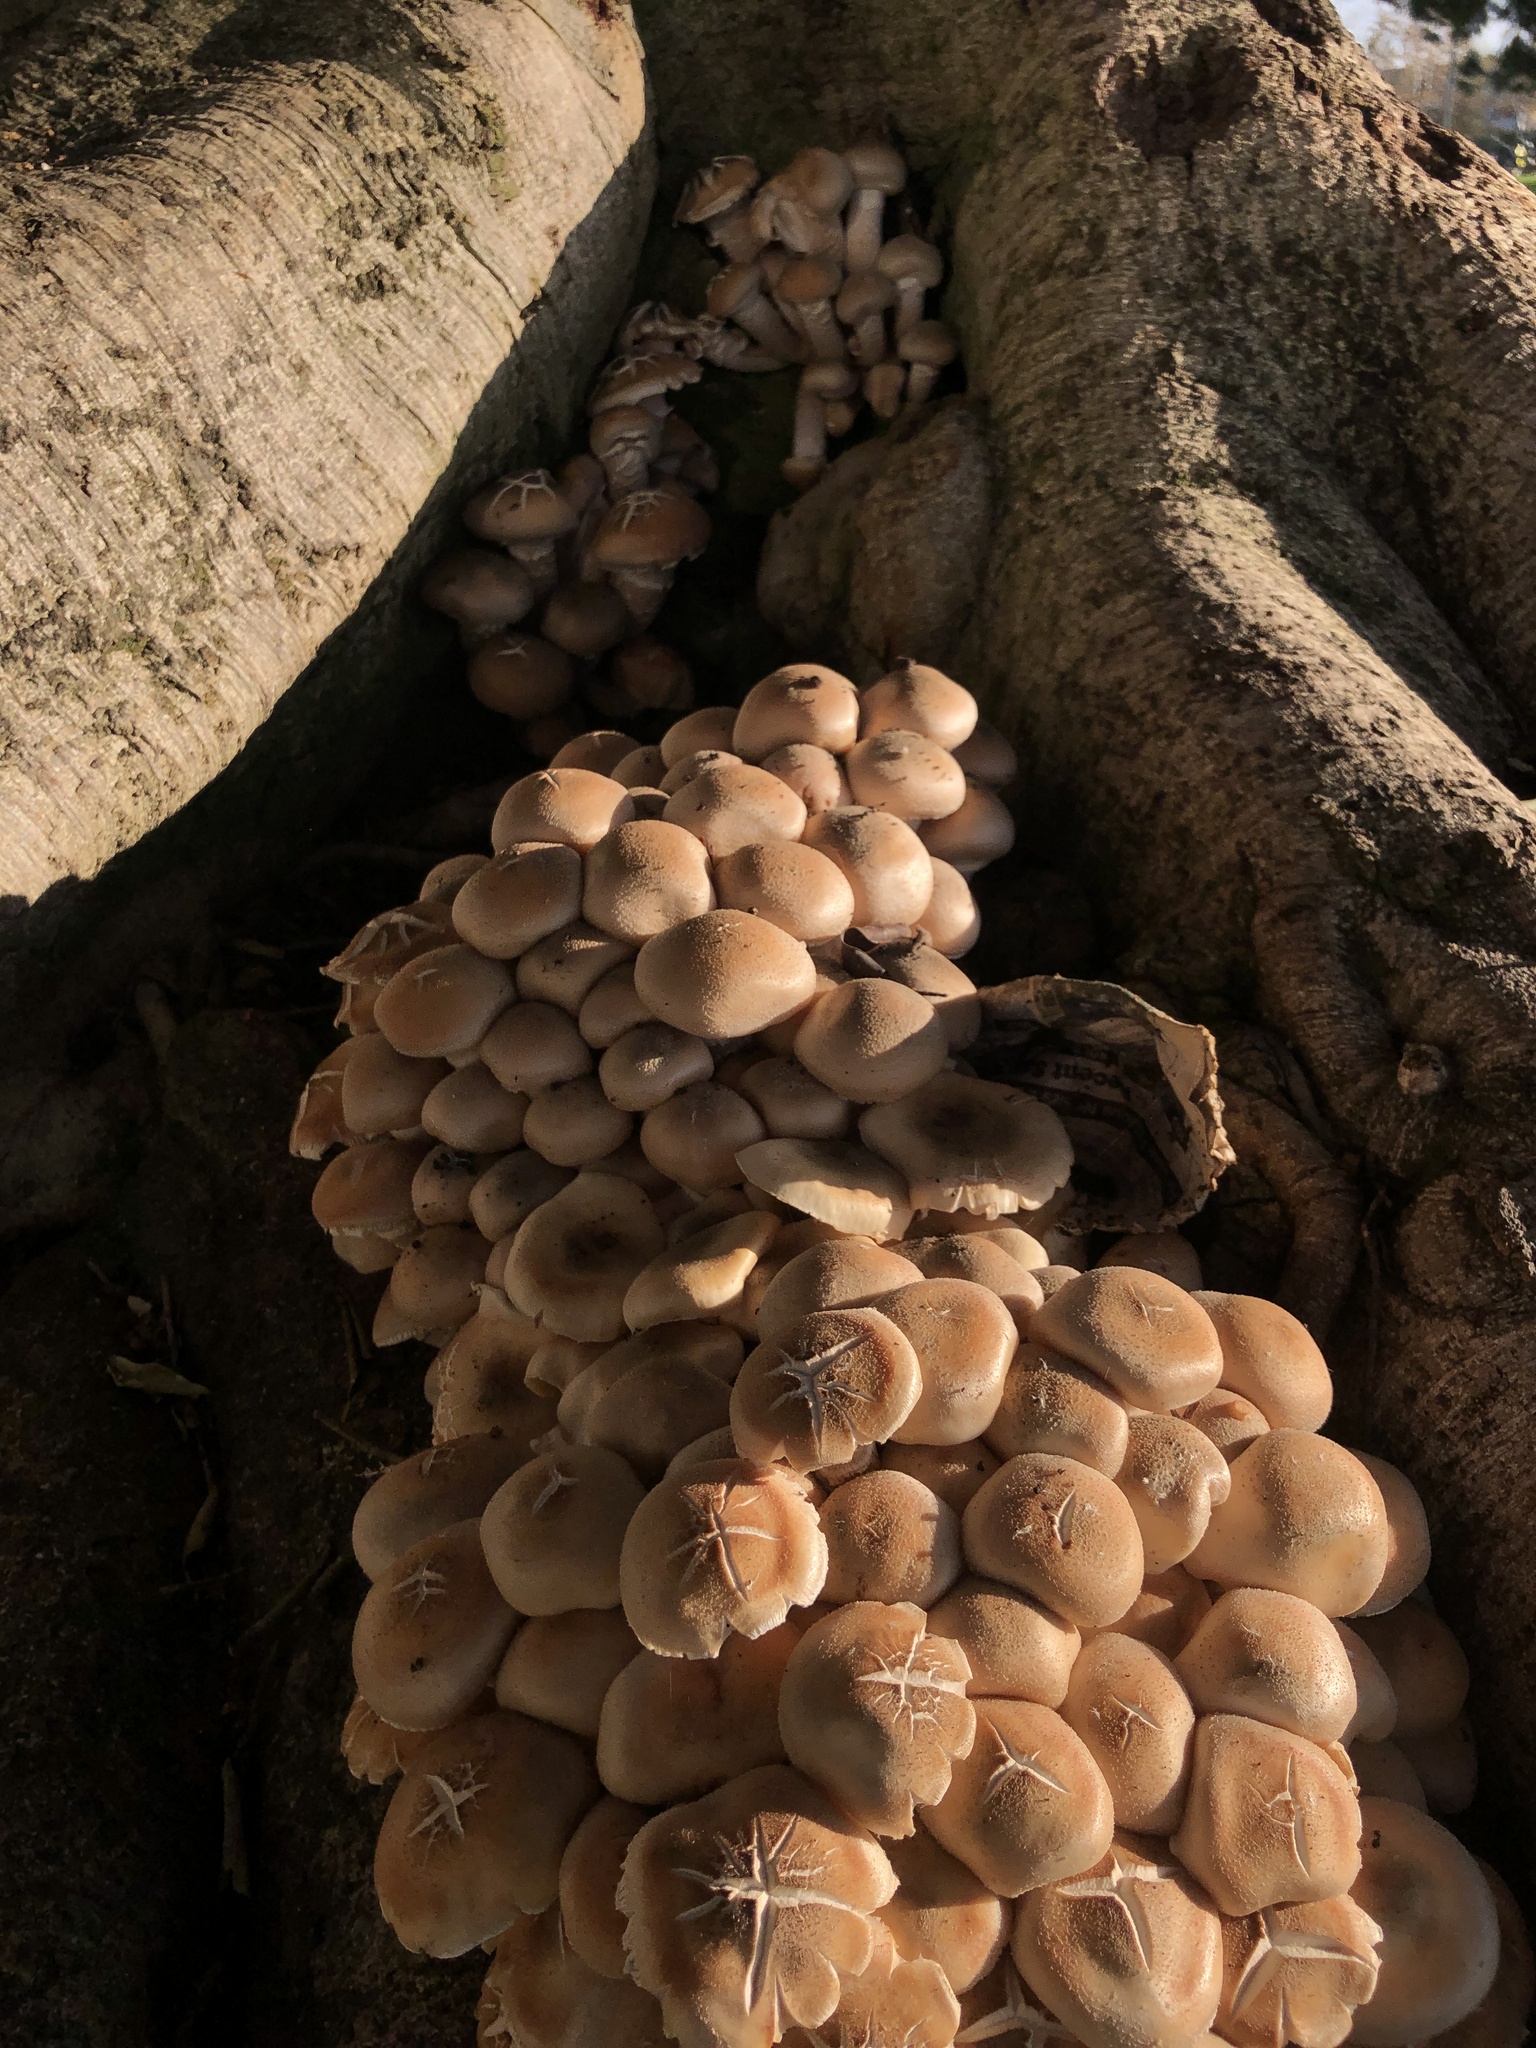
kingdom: Fungi
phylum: Basidiomycota
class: Agaricomycetes
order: Agaricales
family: Physalacriaceae
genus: Armillaria
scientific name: Armillaria mellea
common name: Honey fungus
